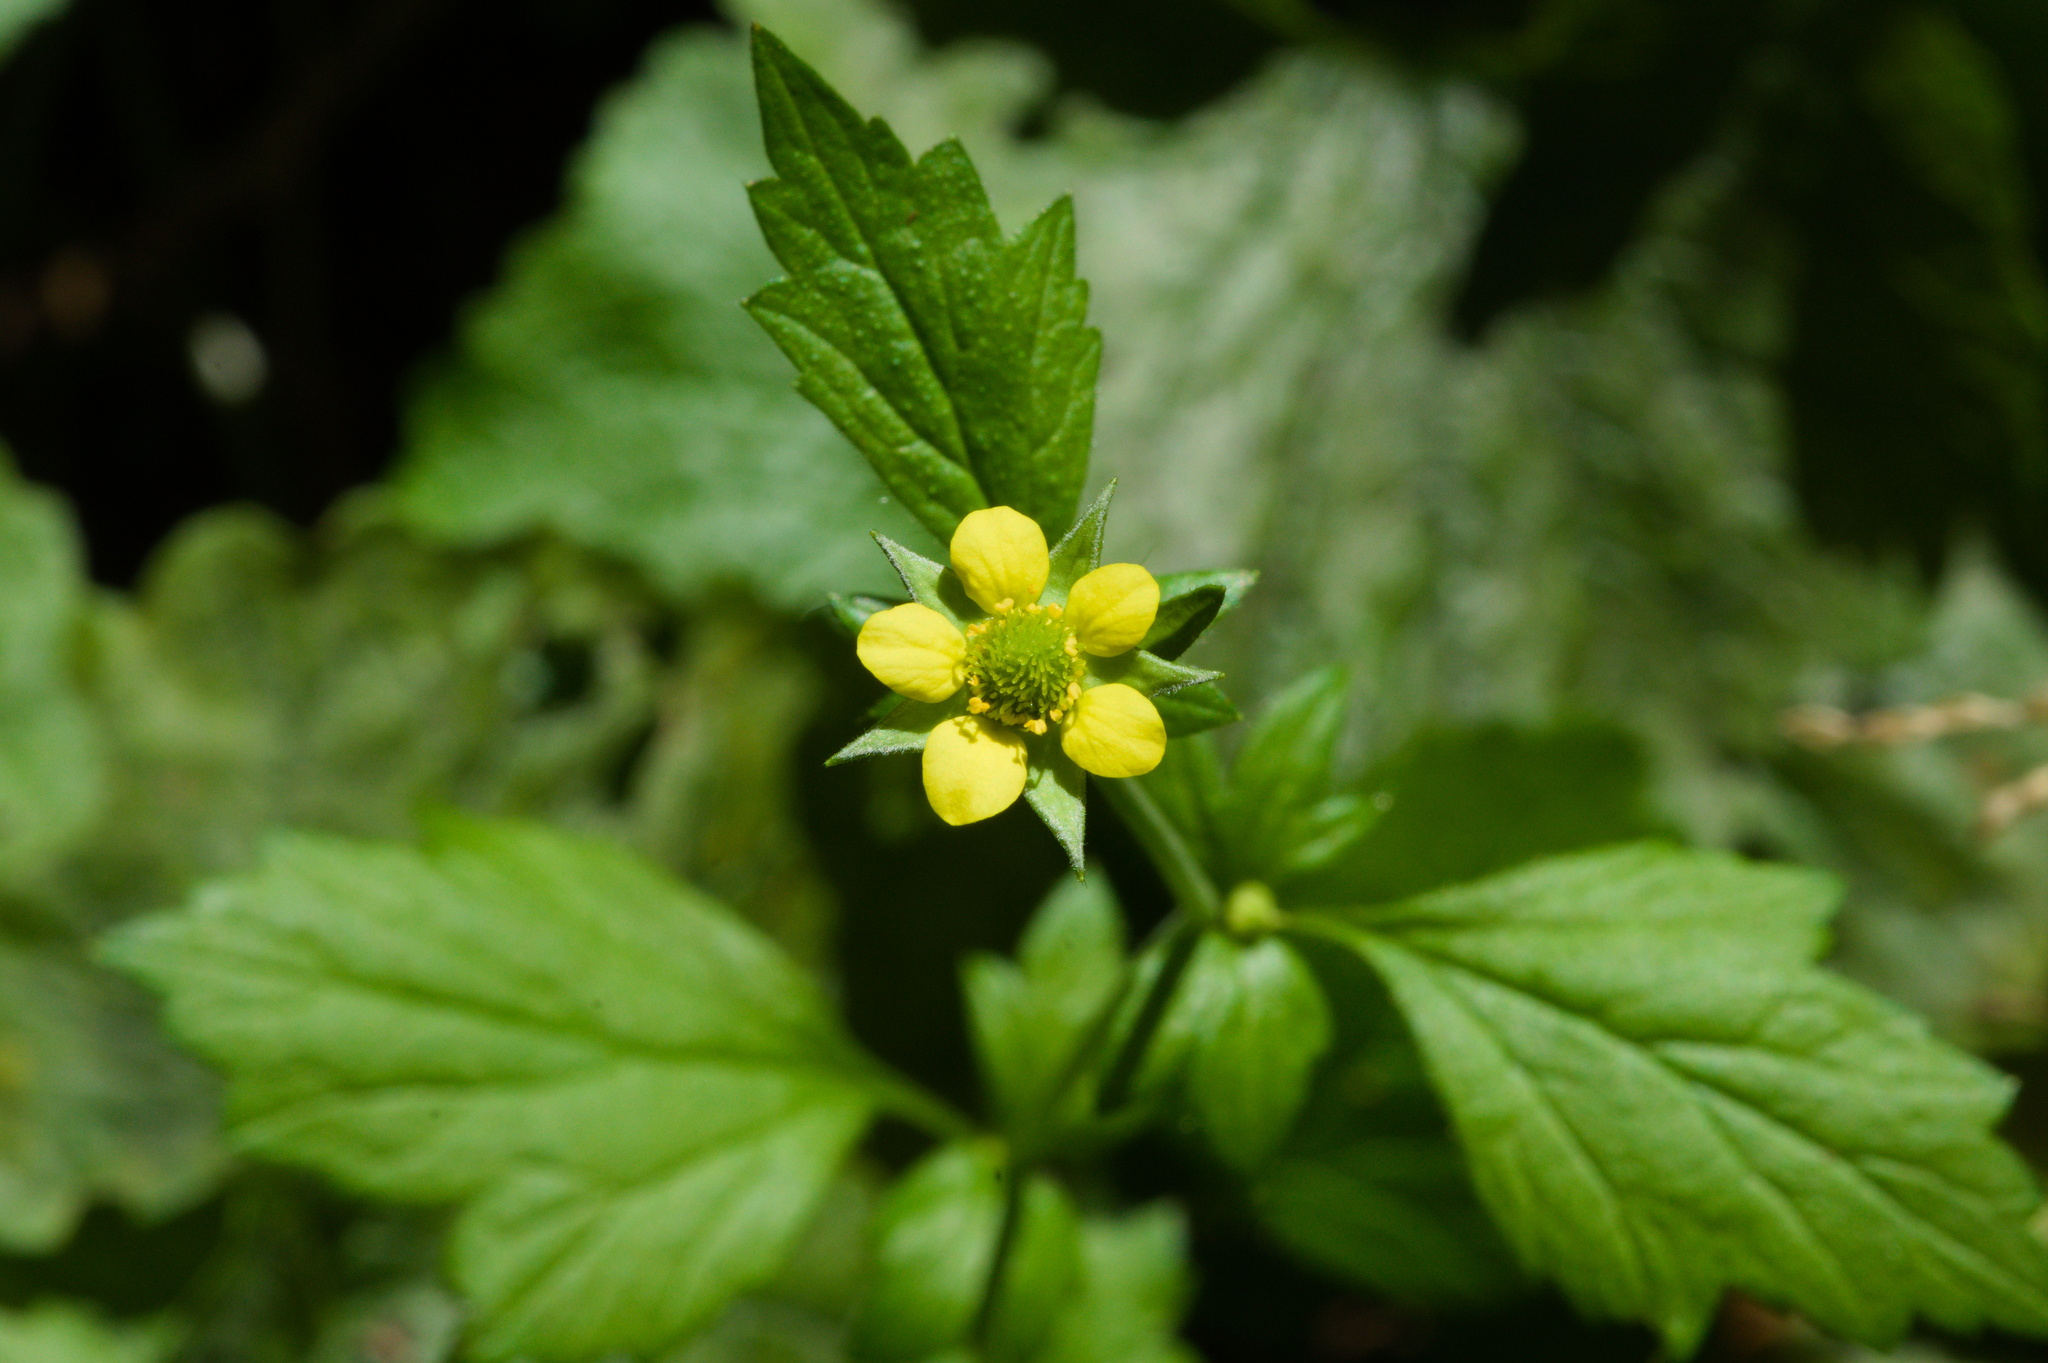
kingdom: Plantae
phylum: Tracheophyta
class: Magnoliopsida
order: Rosales
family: Rosaceae
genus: Geum
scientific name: Geum urbanum
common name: Wood avens
